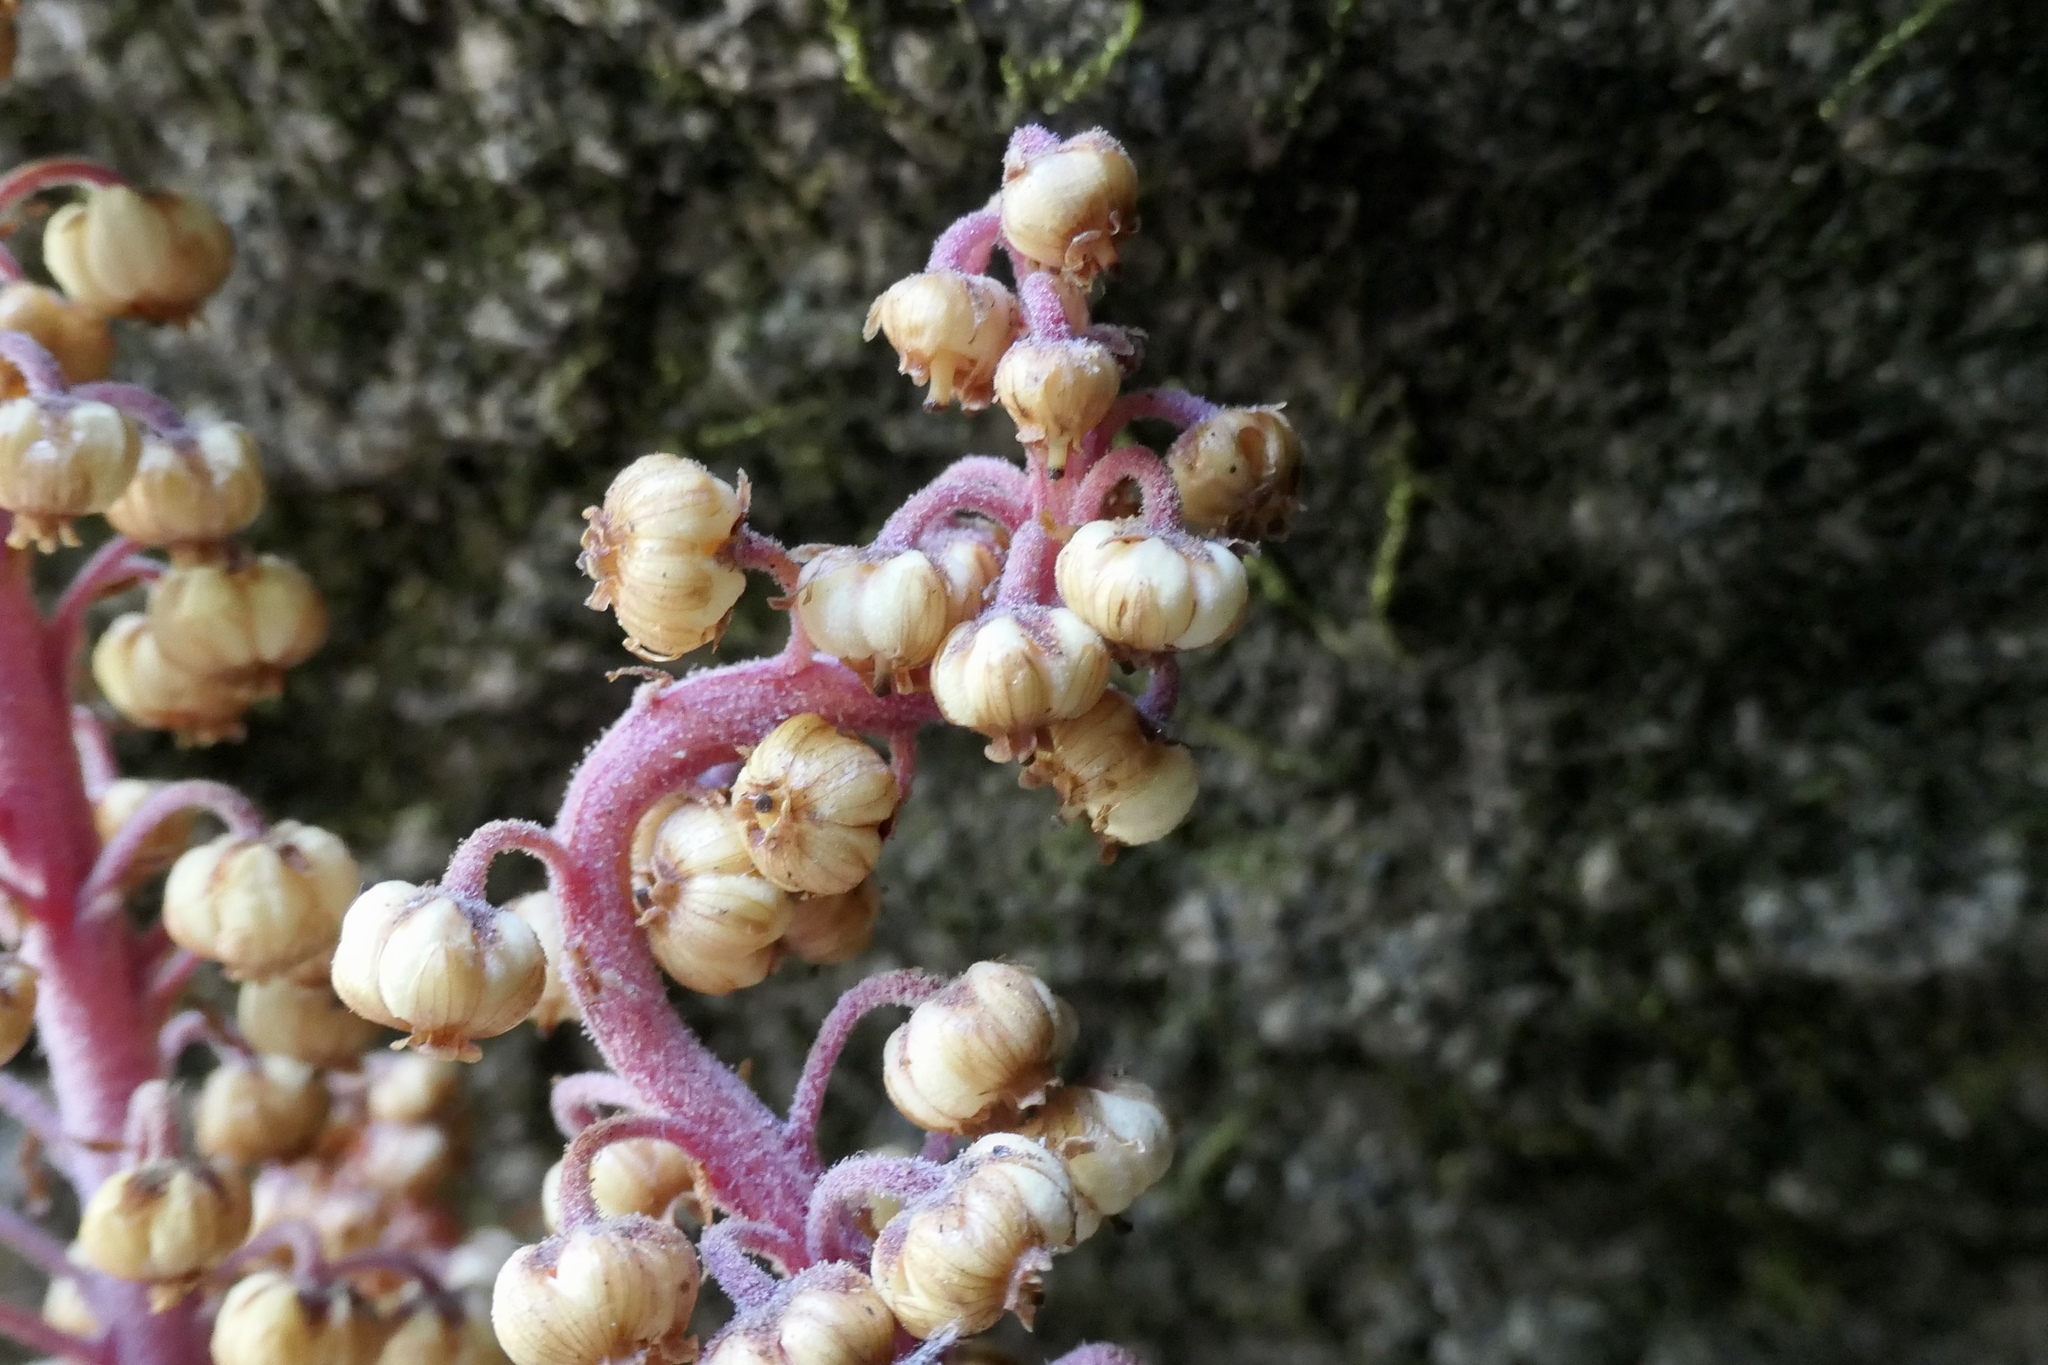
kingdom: Plantae
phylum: Tracheophyta
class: Magnoliopsida
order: Ericales
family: Ericaceae
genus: Pterospora
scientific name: Pterospora andromedea
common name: Giant bird's-nest
